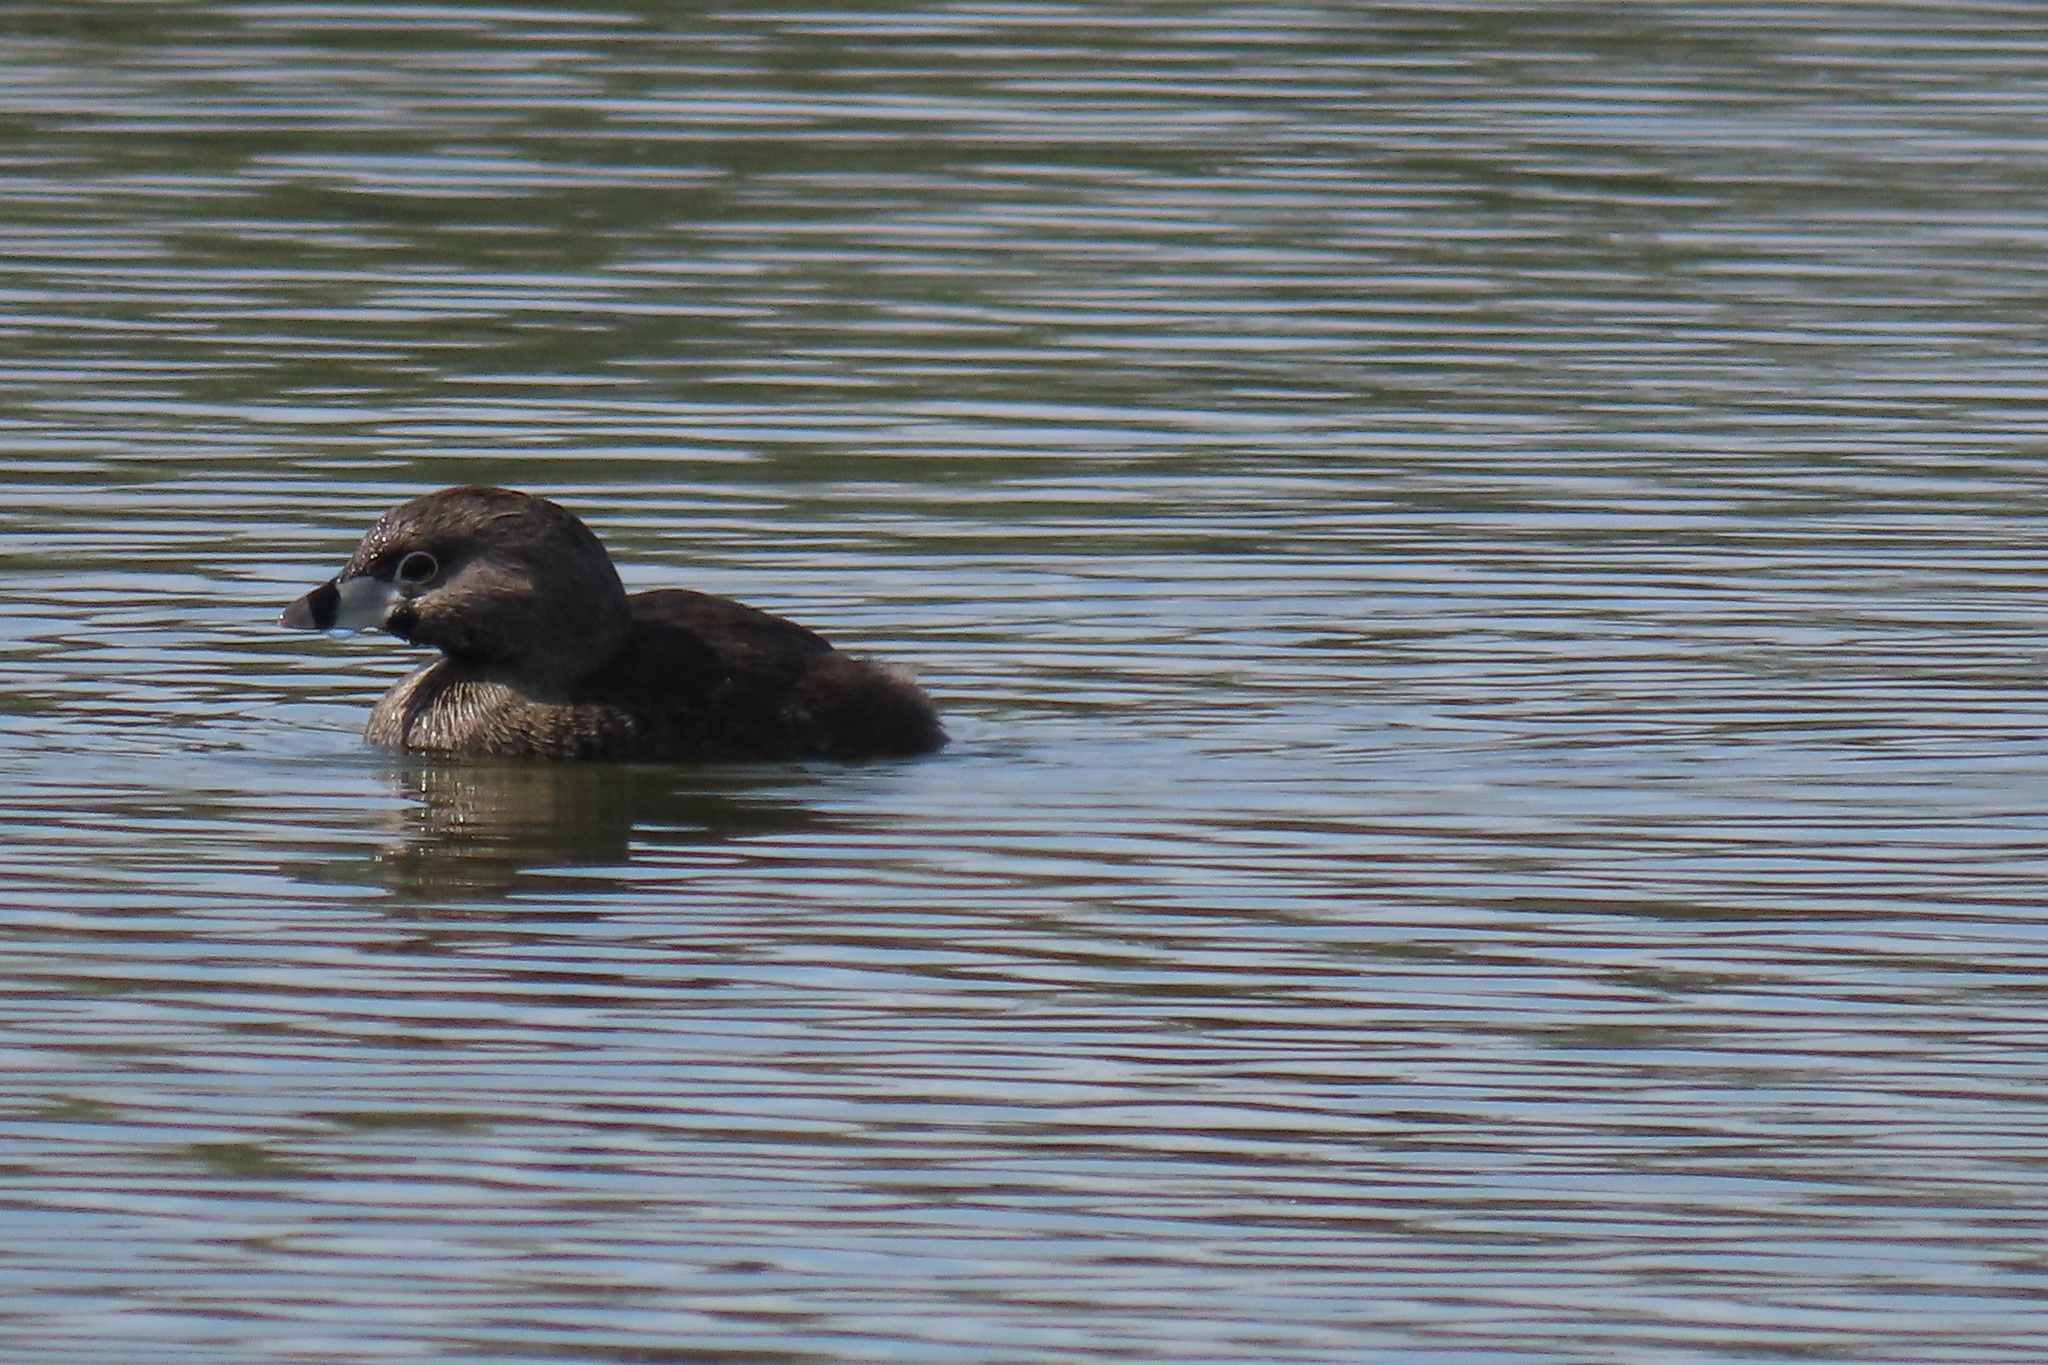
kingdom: Animalia
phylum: Chordata
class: Aves
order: Podicipediformes
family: Podicipedidae
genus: Podilymbus
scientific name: Podilymbus podiceps
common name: Pied-billed grebe
